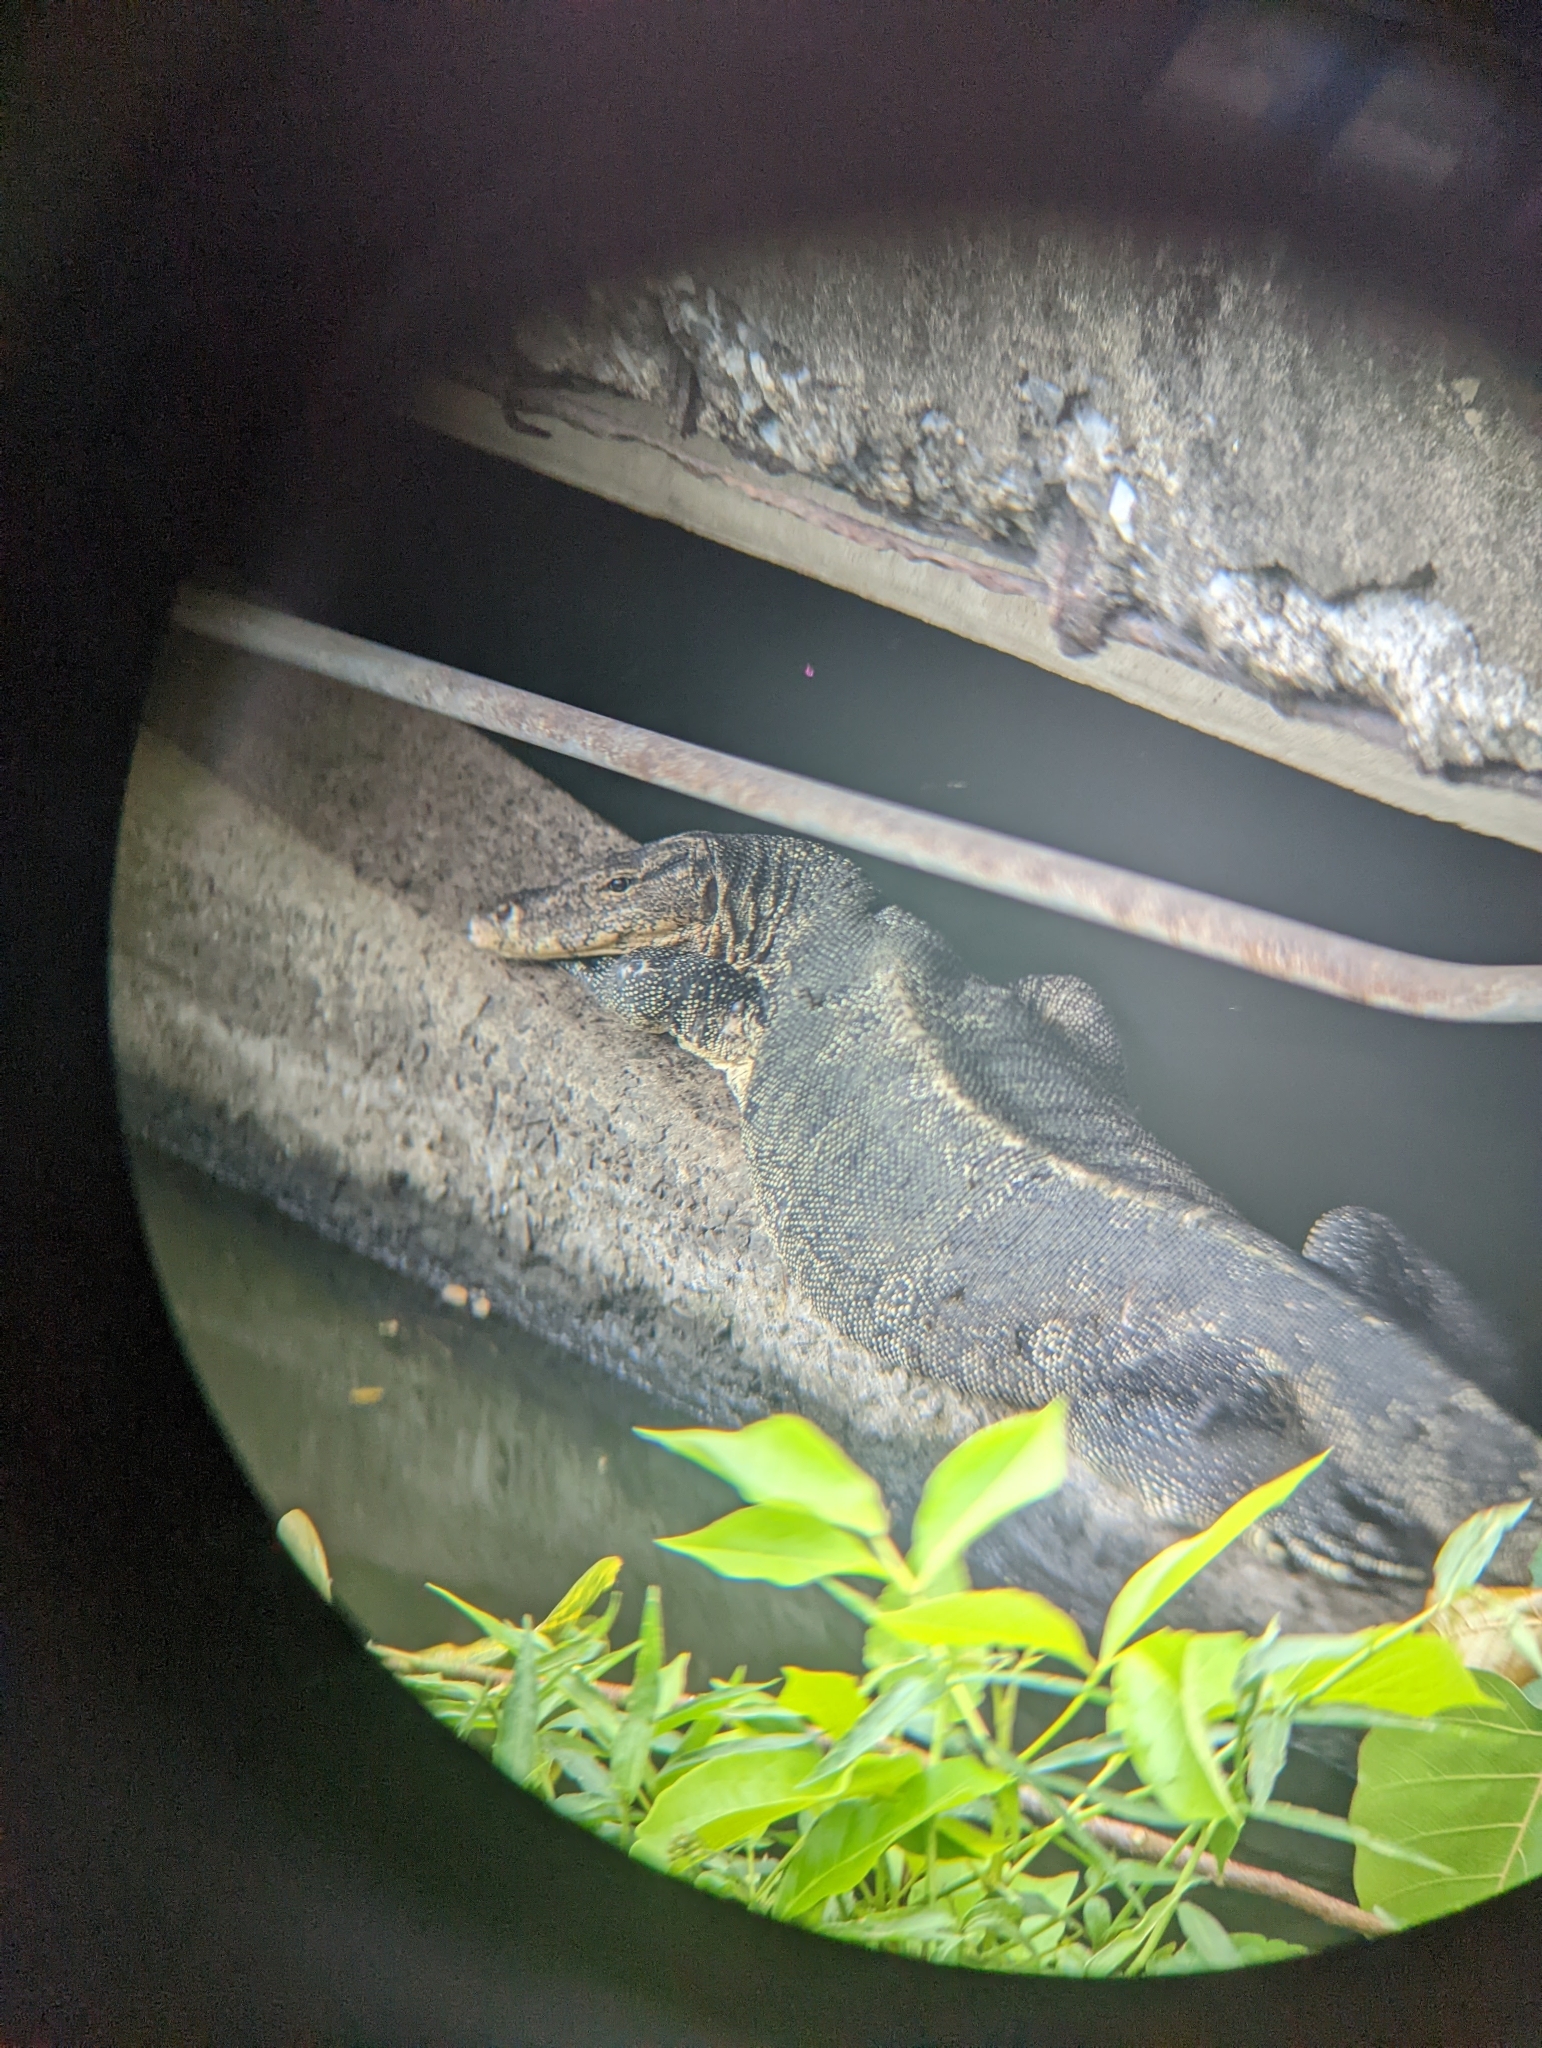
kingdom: Animalia
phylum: Chordata
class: Squamata
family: Varanidae
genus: Varanus
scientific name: Varanus salvator
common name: Common water monitor
